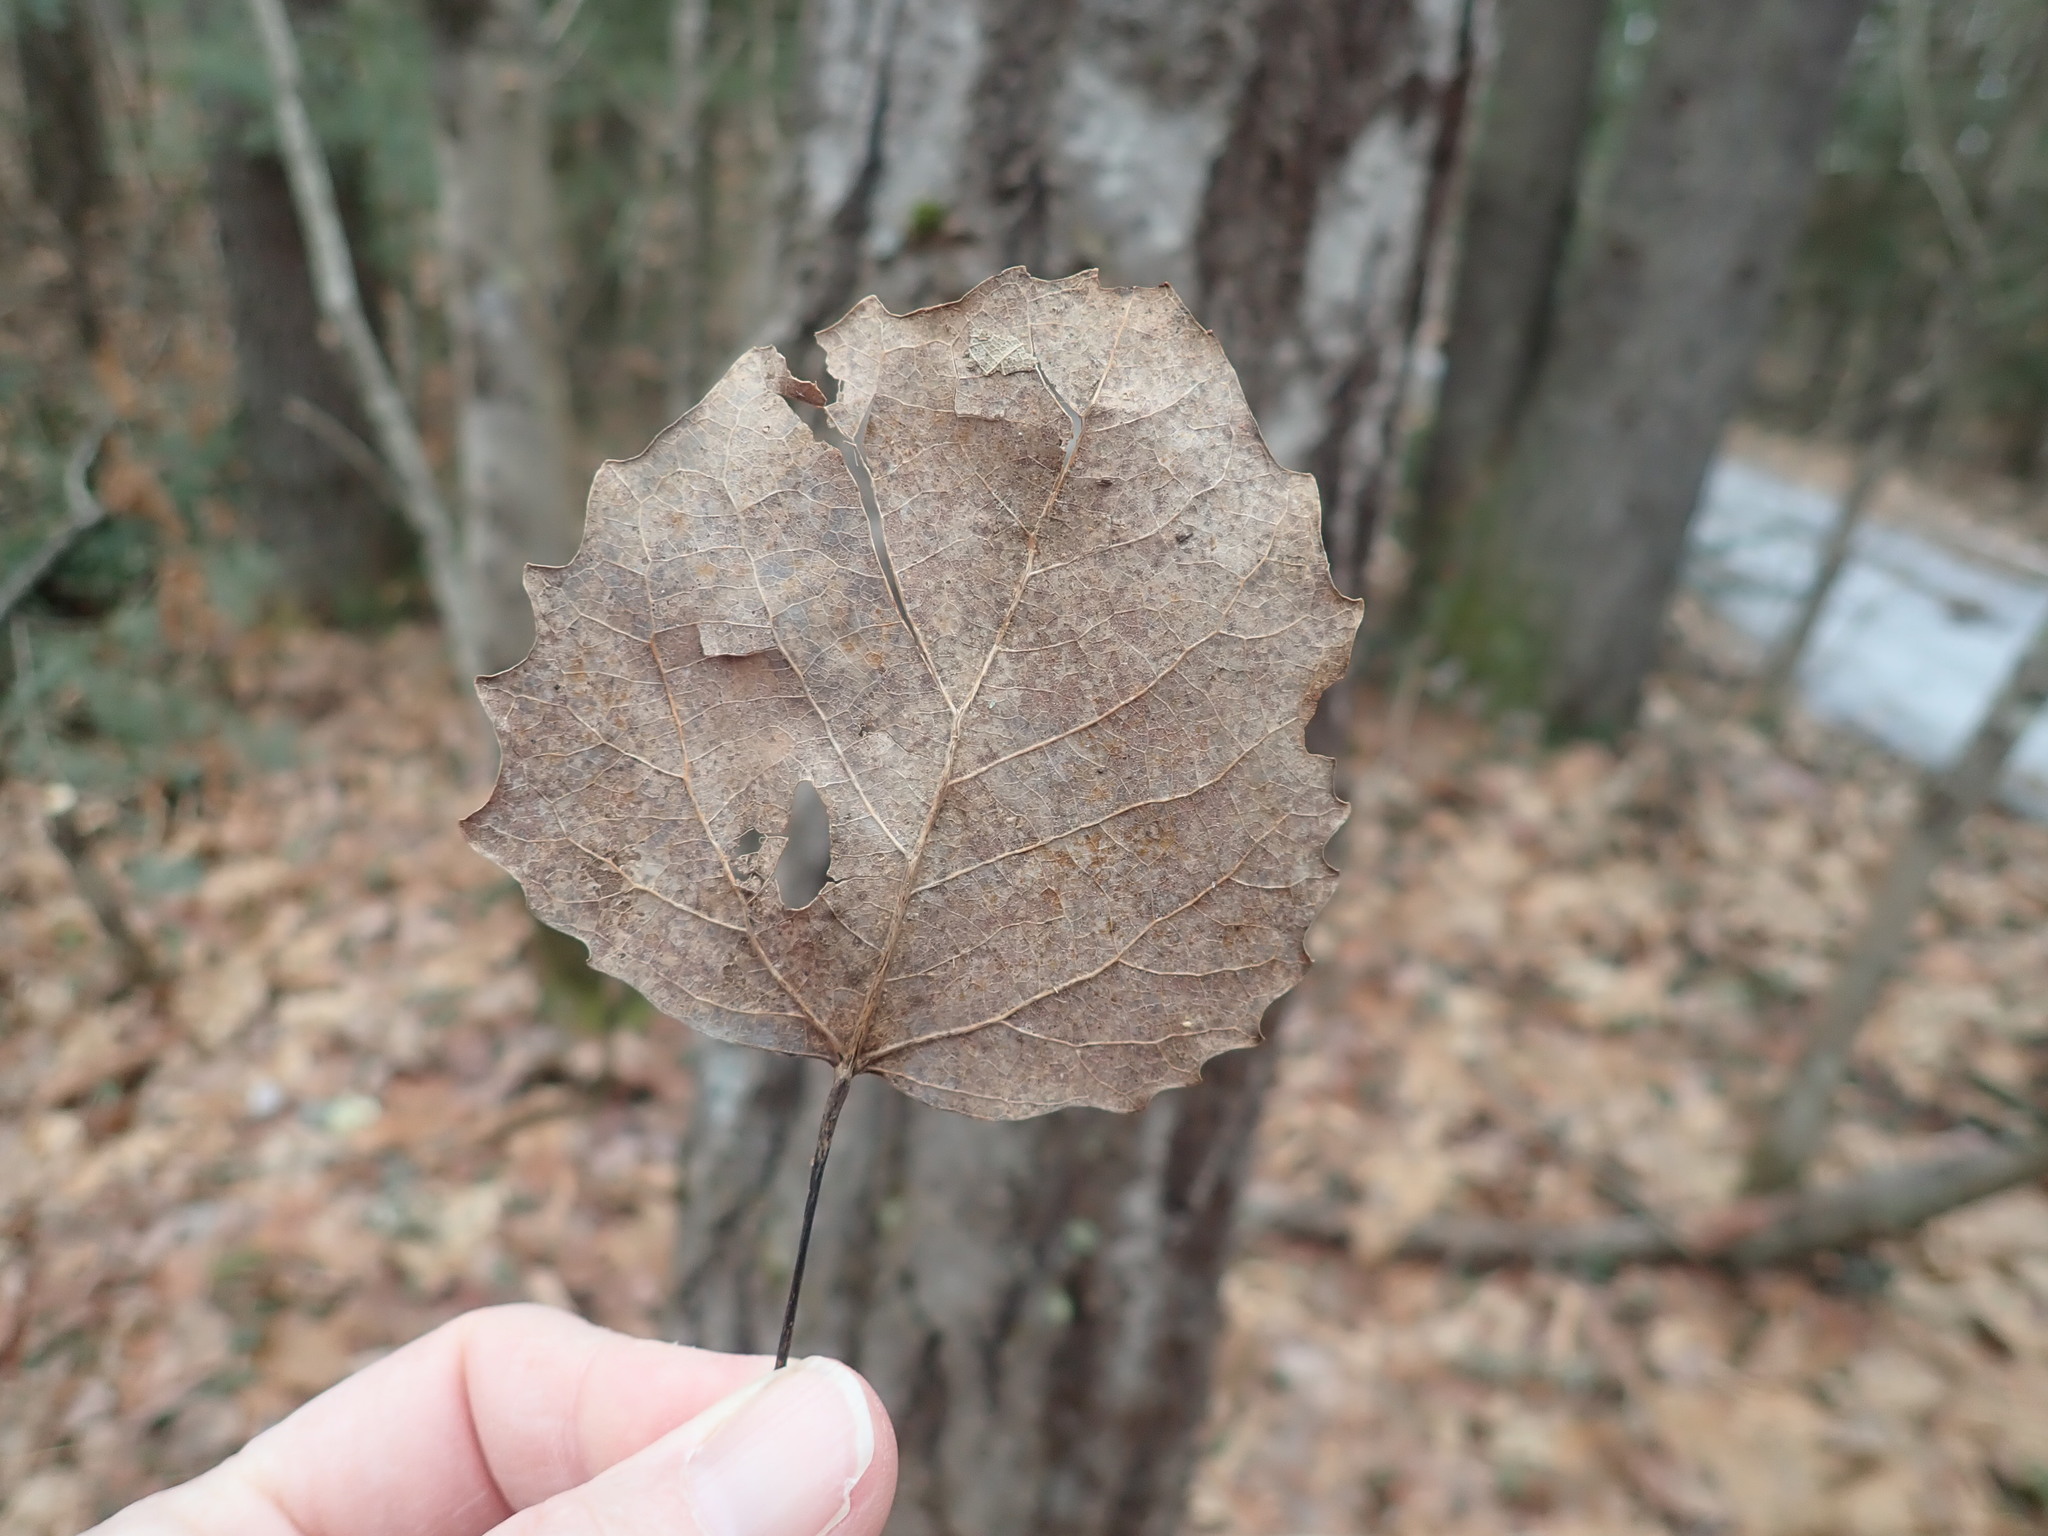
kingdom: Plantae
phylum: Tracheophyta
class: Magnoliopsida
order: Malpighiales
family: Salicaceae
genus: Populus
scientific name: Populus grandidentata
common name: Bigtooth aspen
